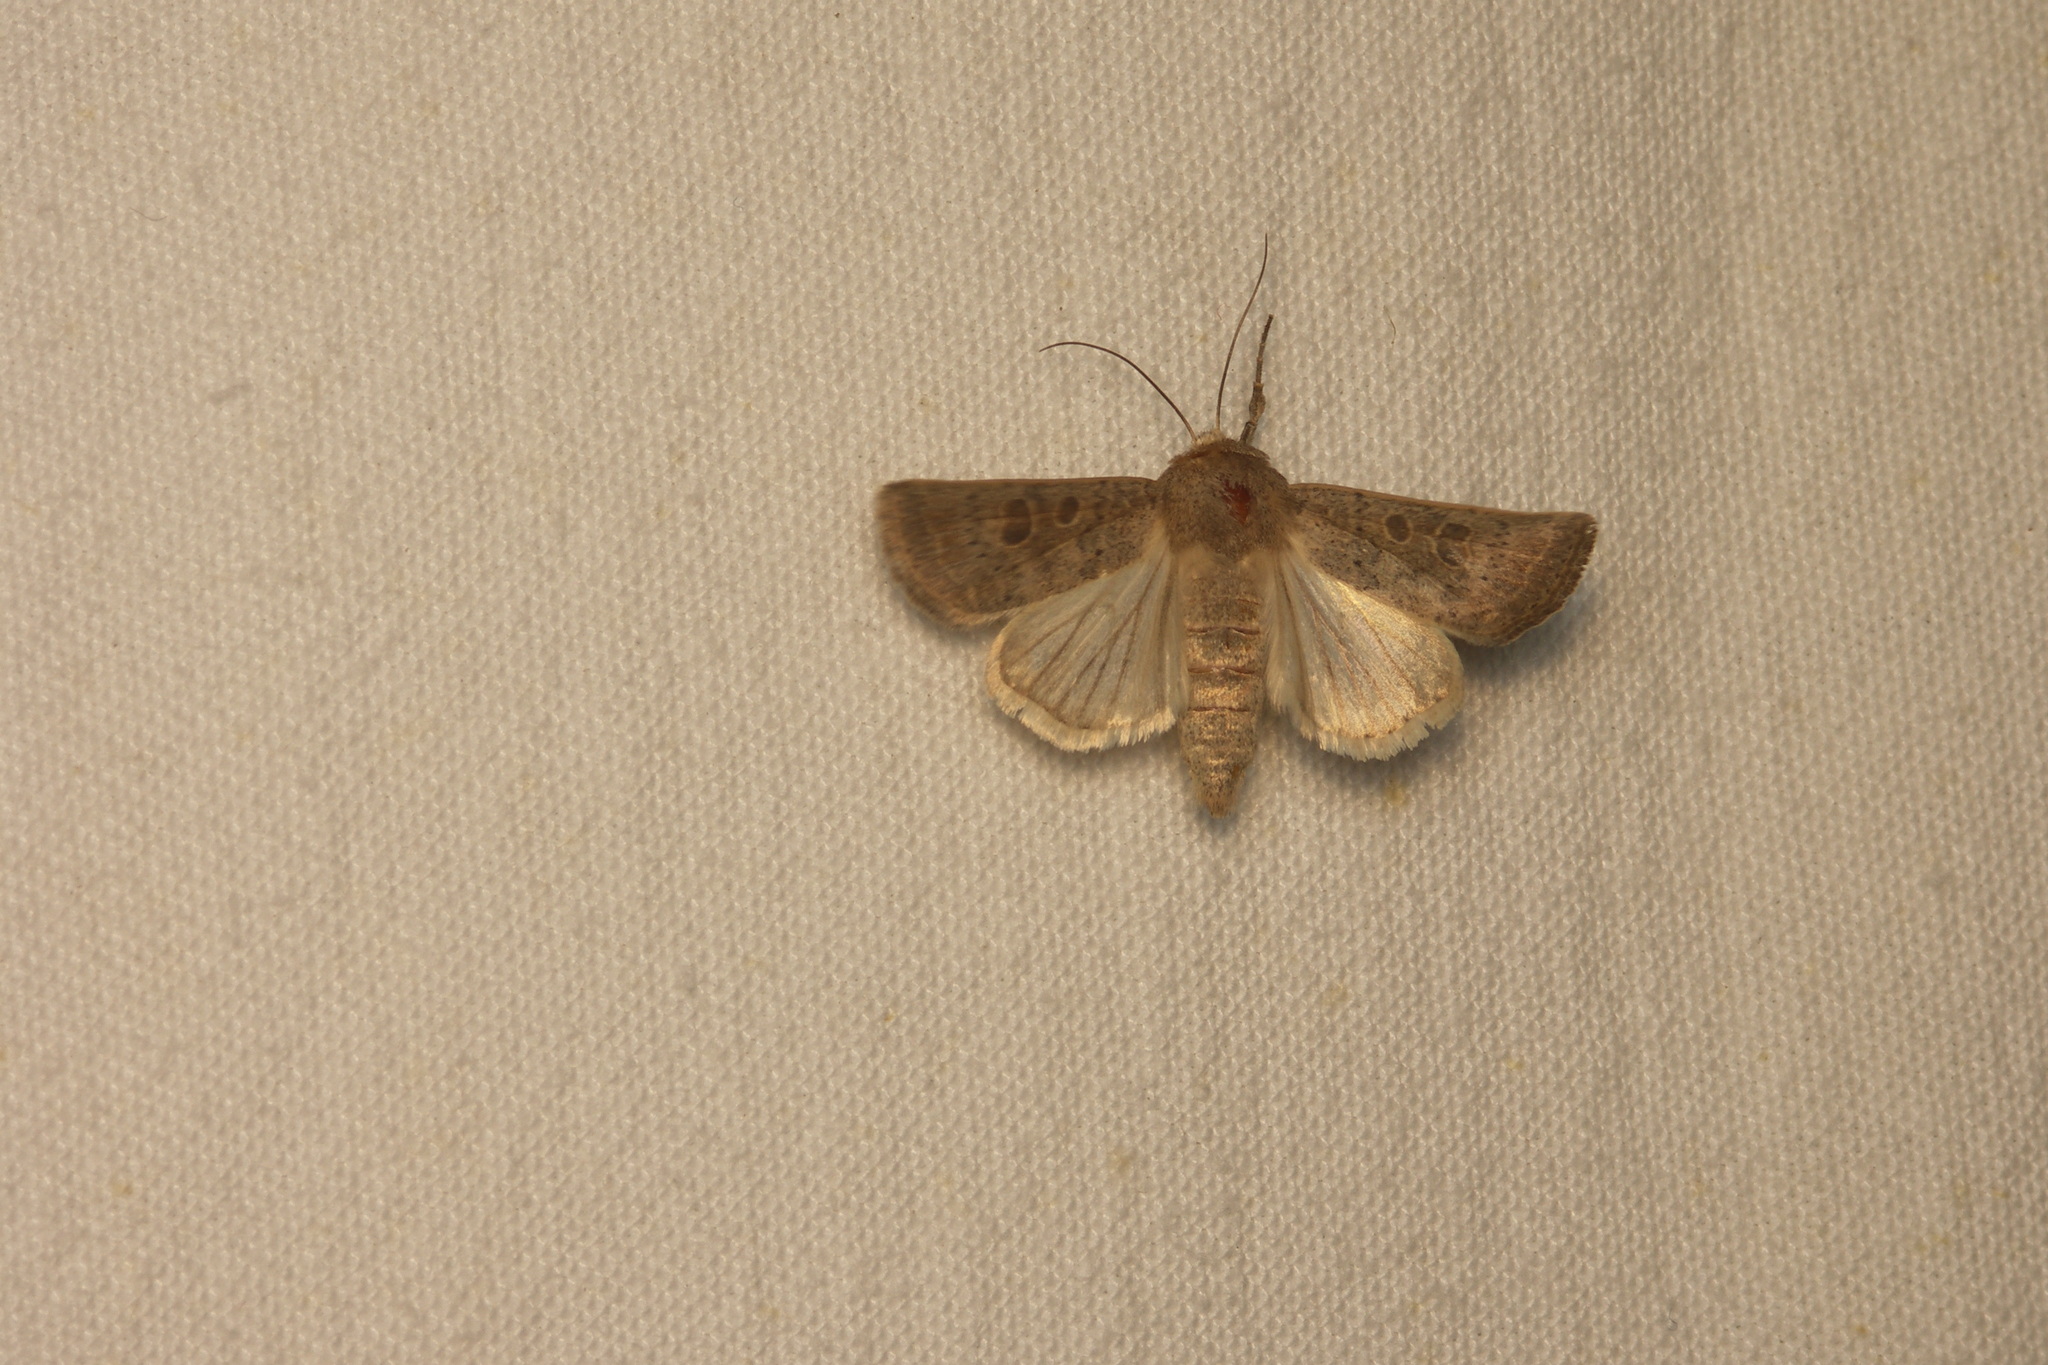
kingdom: Animalia
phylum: Arthropoda
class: Insecta
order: Lepidoptera
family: Noctuidae
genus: Hoplodrina
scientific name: Hoplodrina ambigua
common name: Vine's rustic
